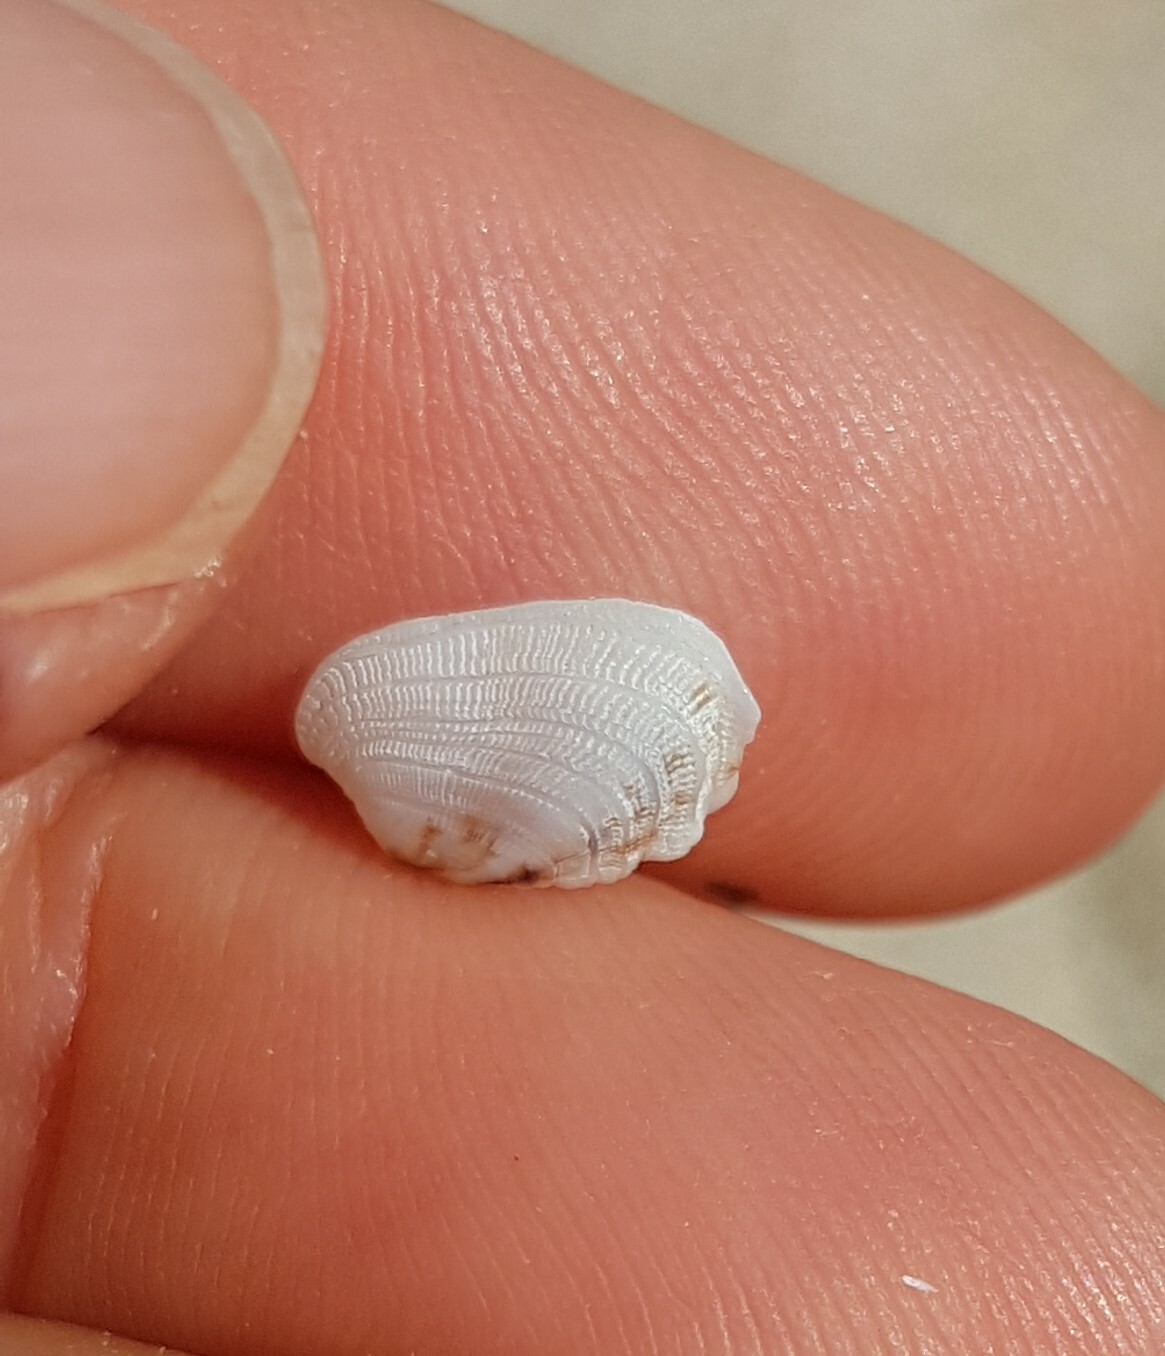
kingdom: Animalia
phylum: Mollusca
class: Bivalvia
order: Venerida
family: Veneridae
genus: Irus
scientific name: Irus irus
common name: Irus clam
